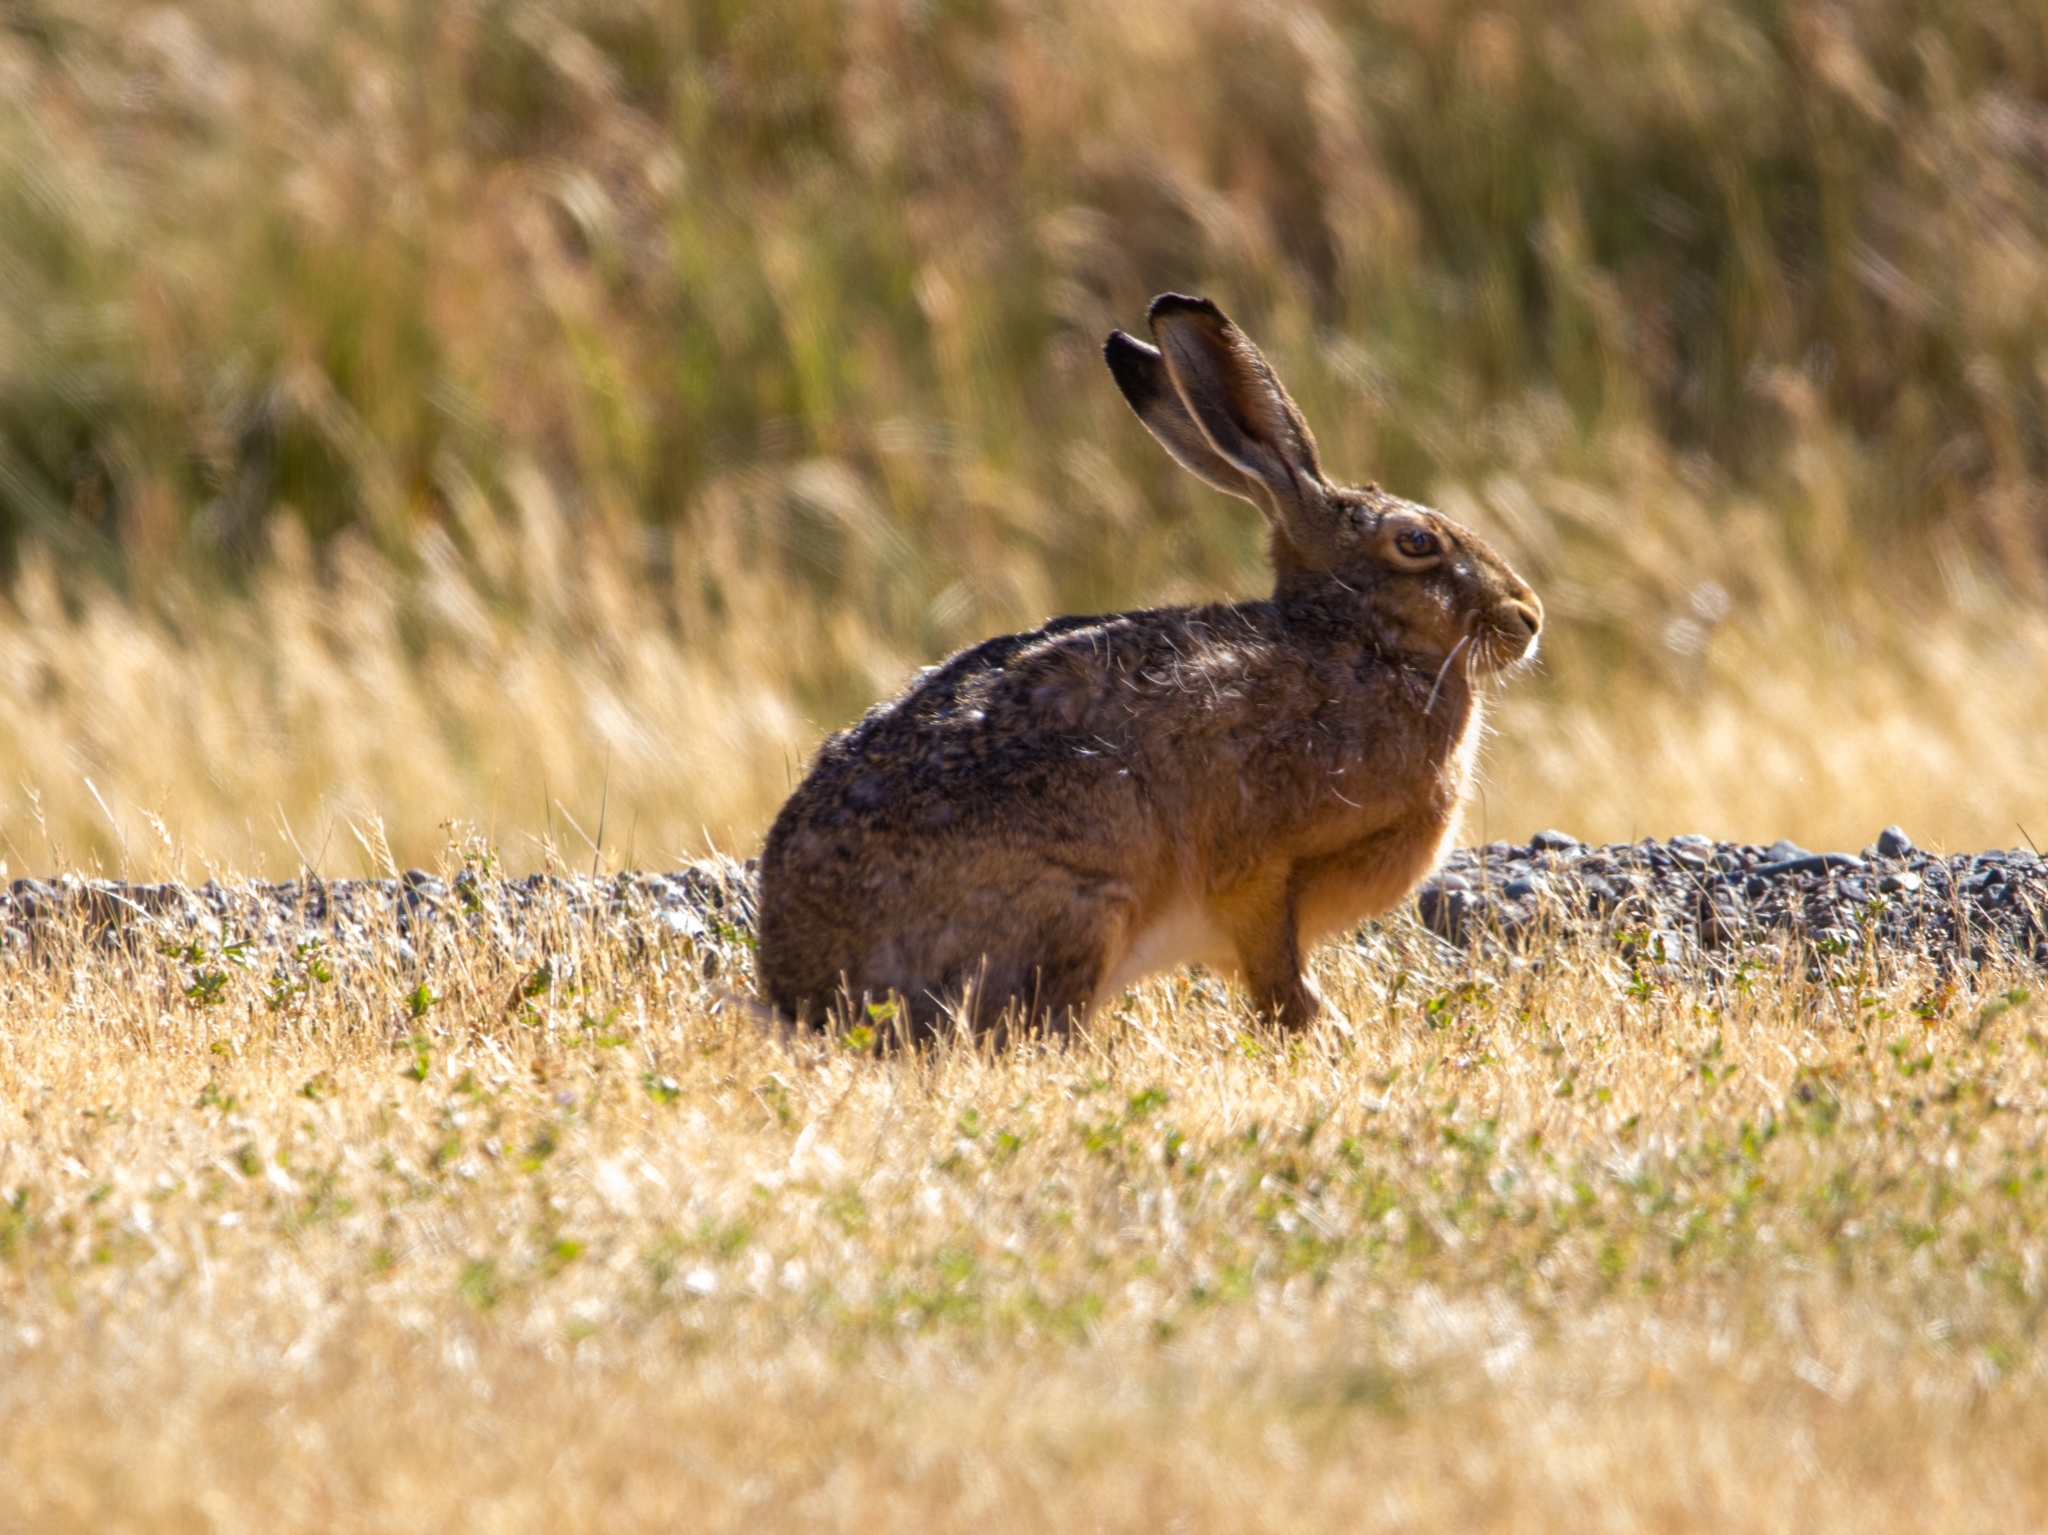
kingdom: Animalia
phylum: Chordata
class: Mammalia
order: Lagomorpha
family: Leporidae
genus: Lepus
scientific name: Lepus europaeus
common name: European hare
